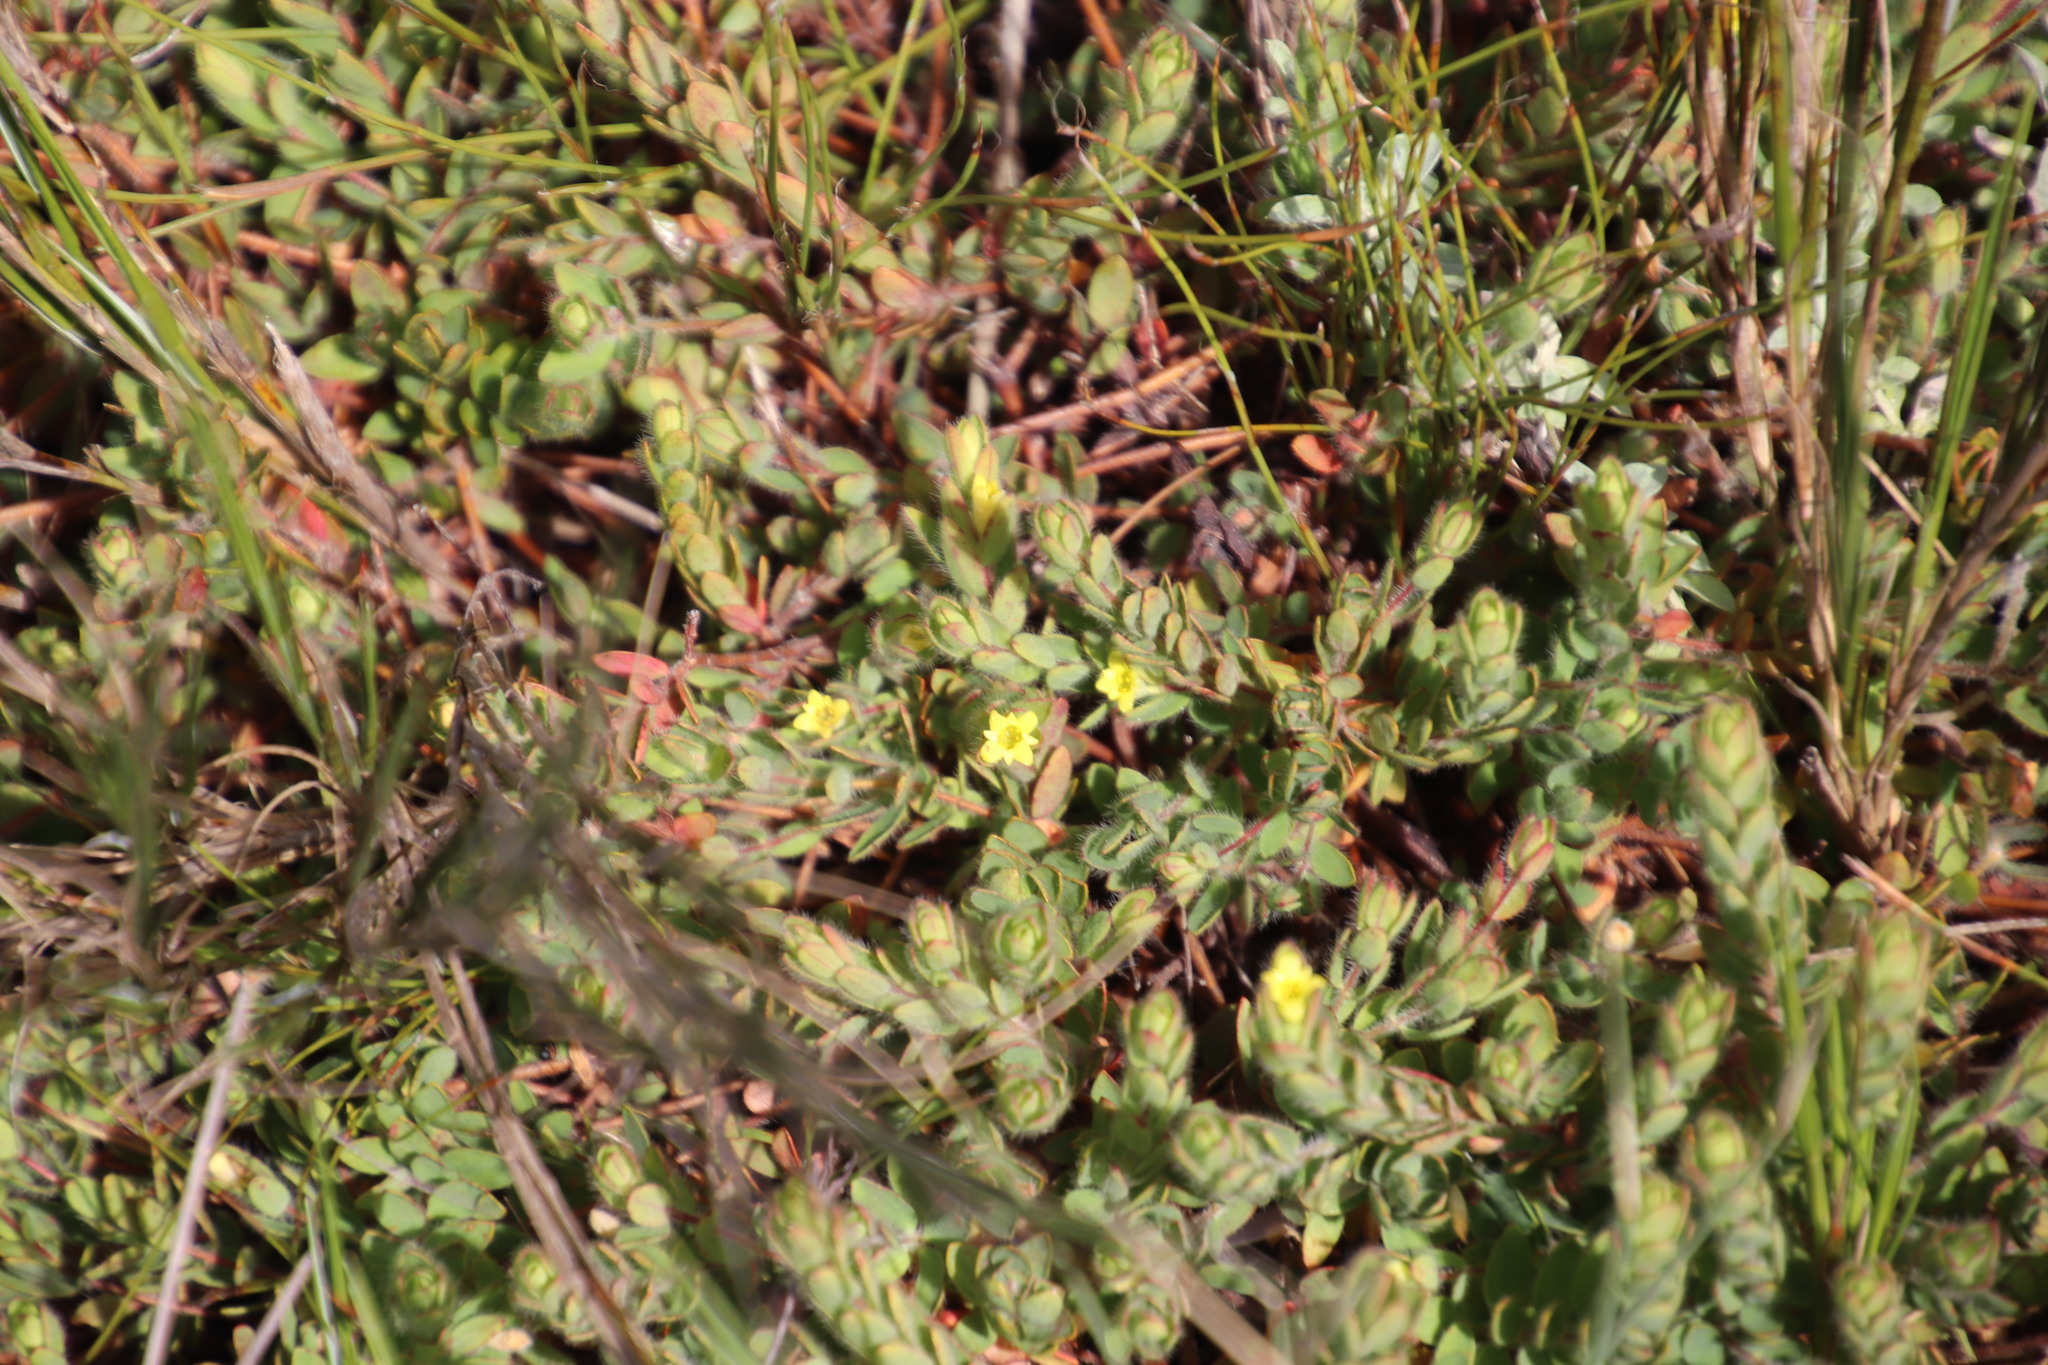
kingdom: Plantae
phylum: Tracheophyta
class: Magnoliopsida
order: Malvales
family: Thymelaeaceae
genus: Gnidia
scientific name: Gnidia humilis
